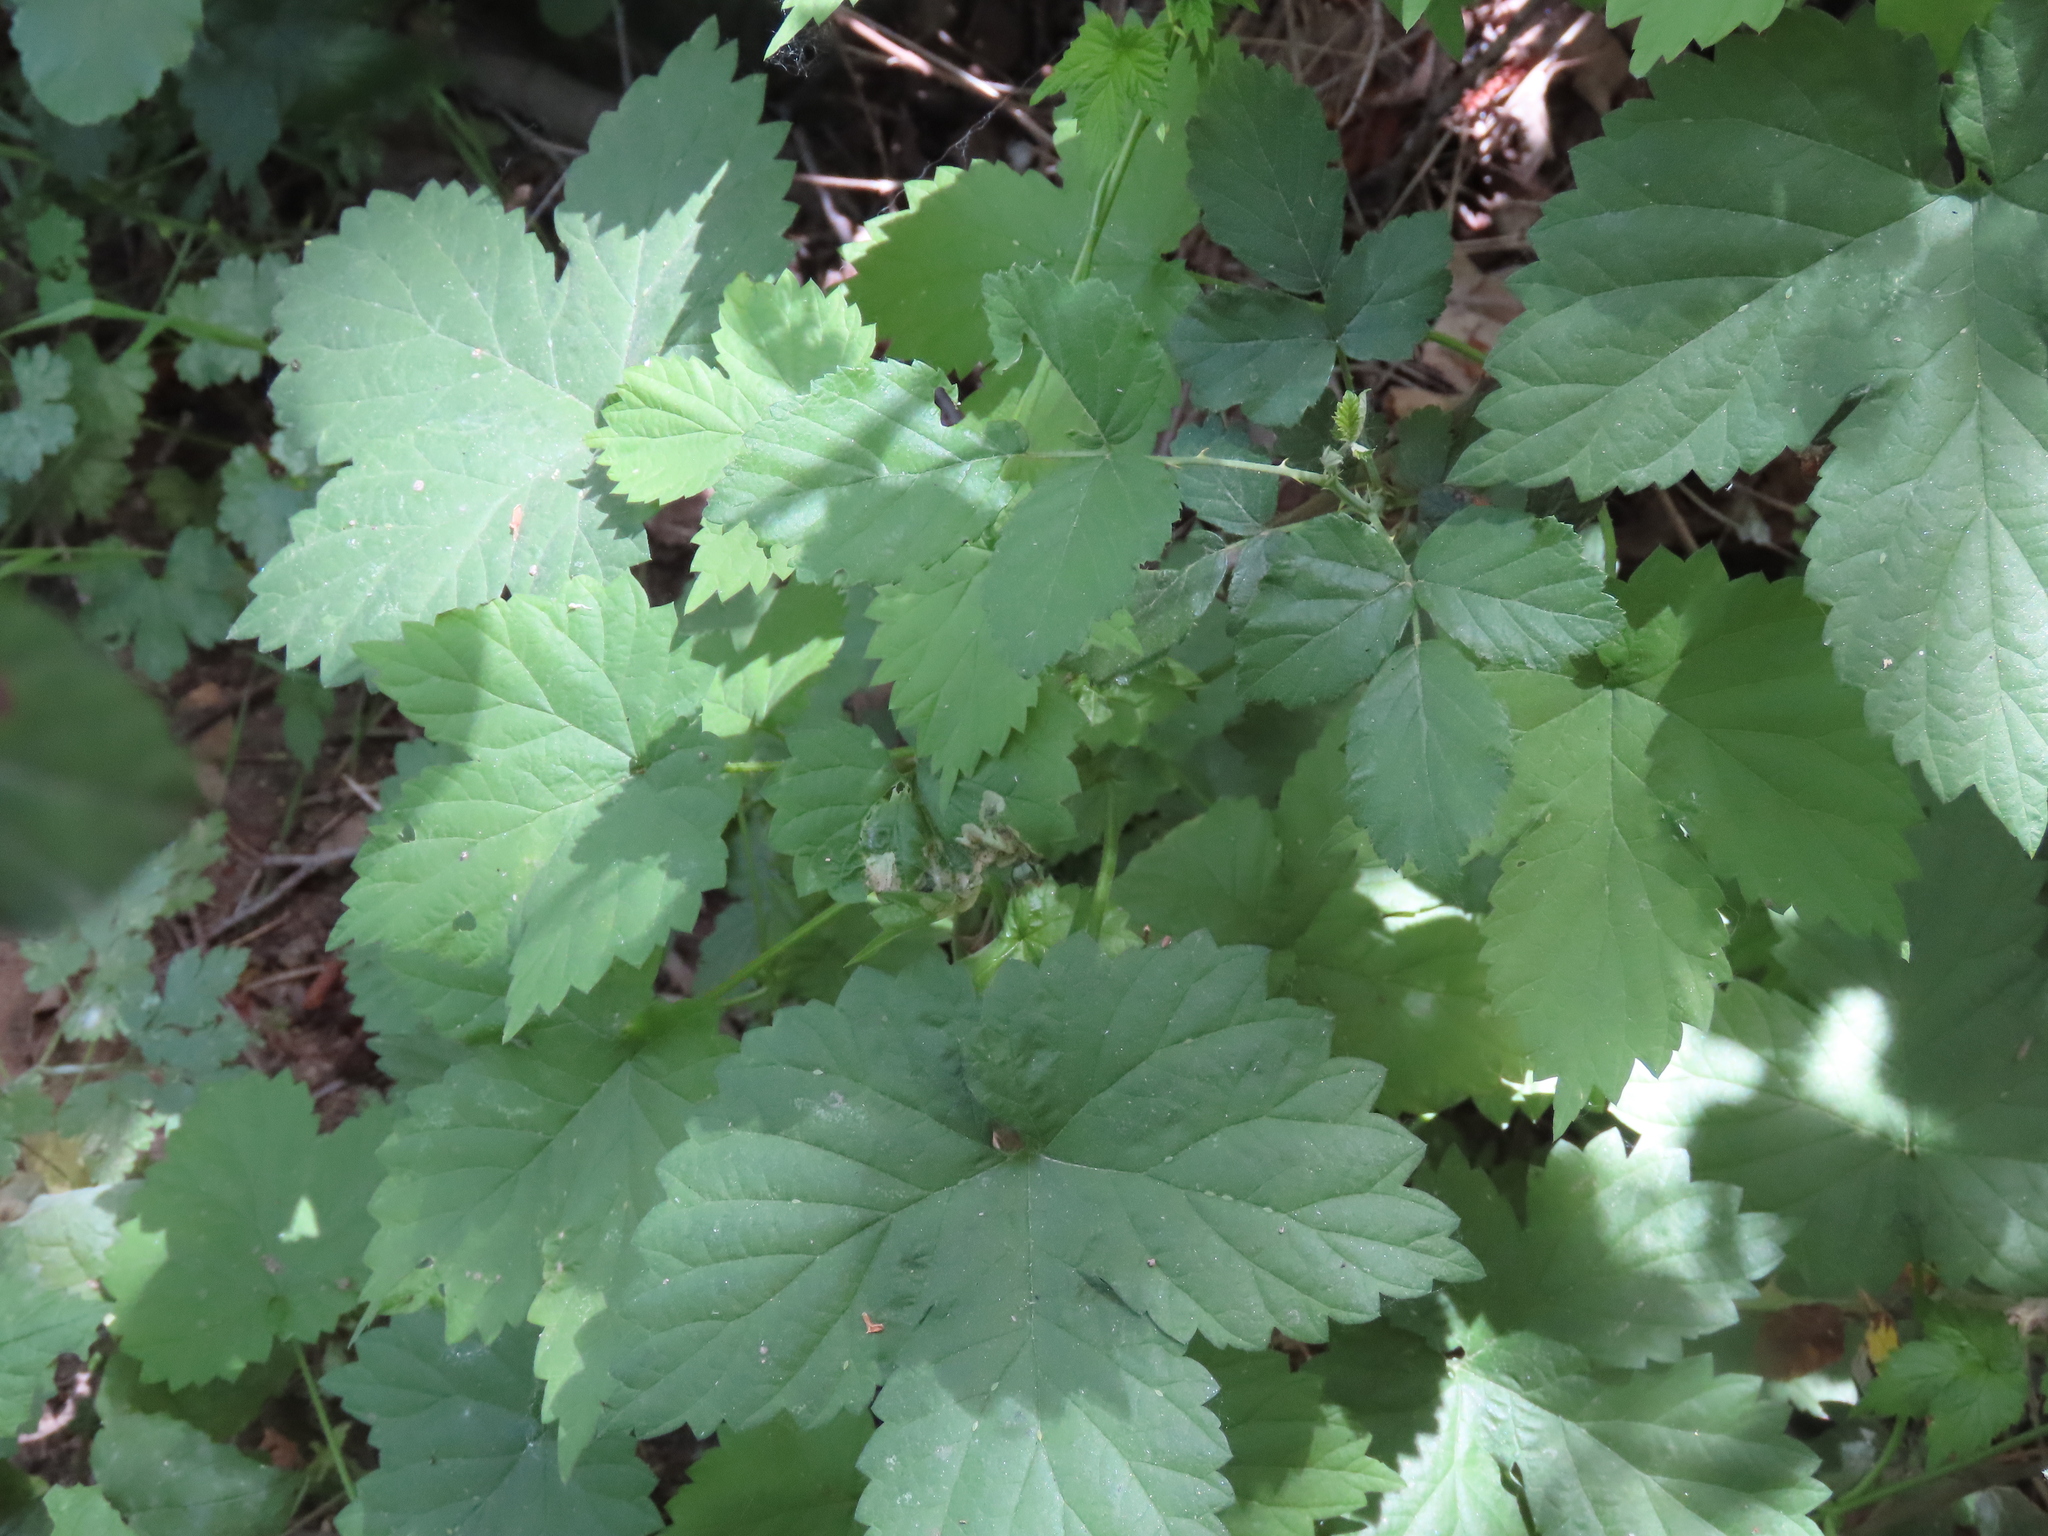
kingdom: Plantae
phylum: Tracheophyta
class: Magnoliopsida
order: Rosales
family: Cannabaceae
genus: Humulus
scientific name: Humulus lupulus
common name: Hop
